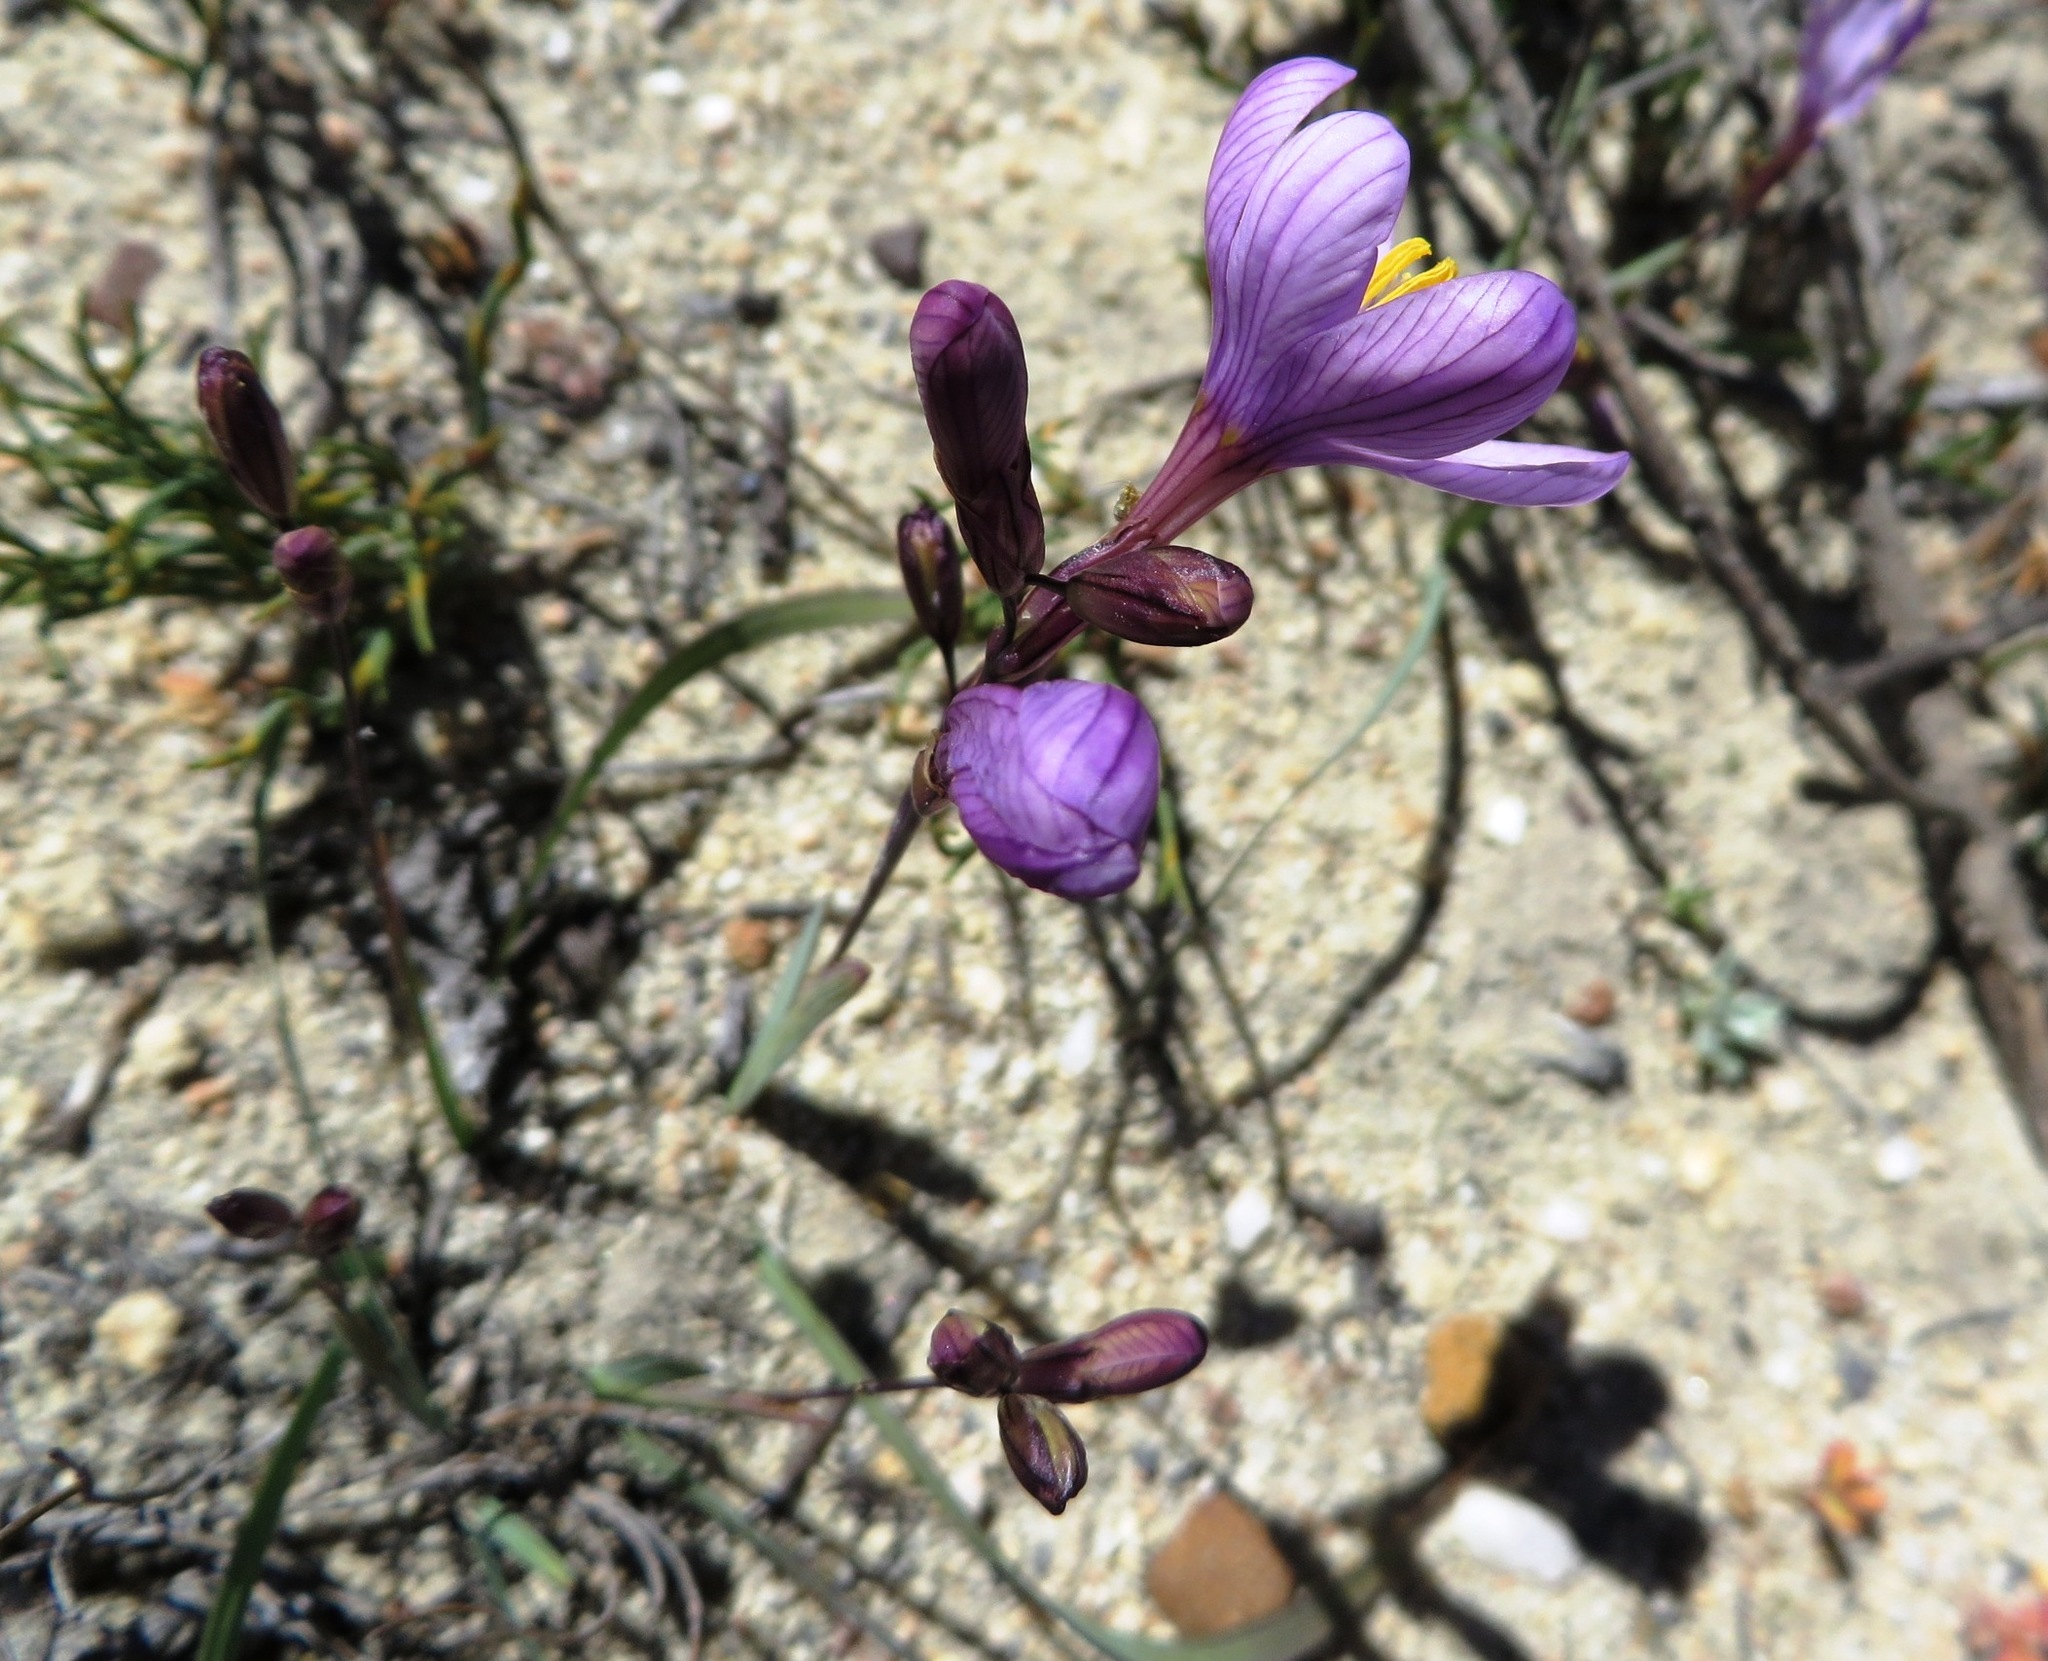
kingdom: Plantae
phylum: Tracheophyta
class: Liliopsida
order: Asparagales
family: Iridaceae
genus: Ixia
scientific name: Ixia latifolia
